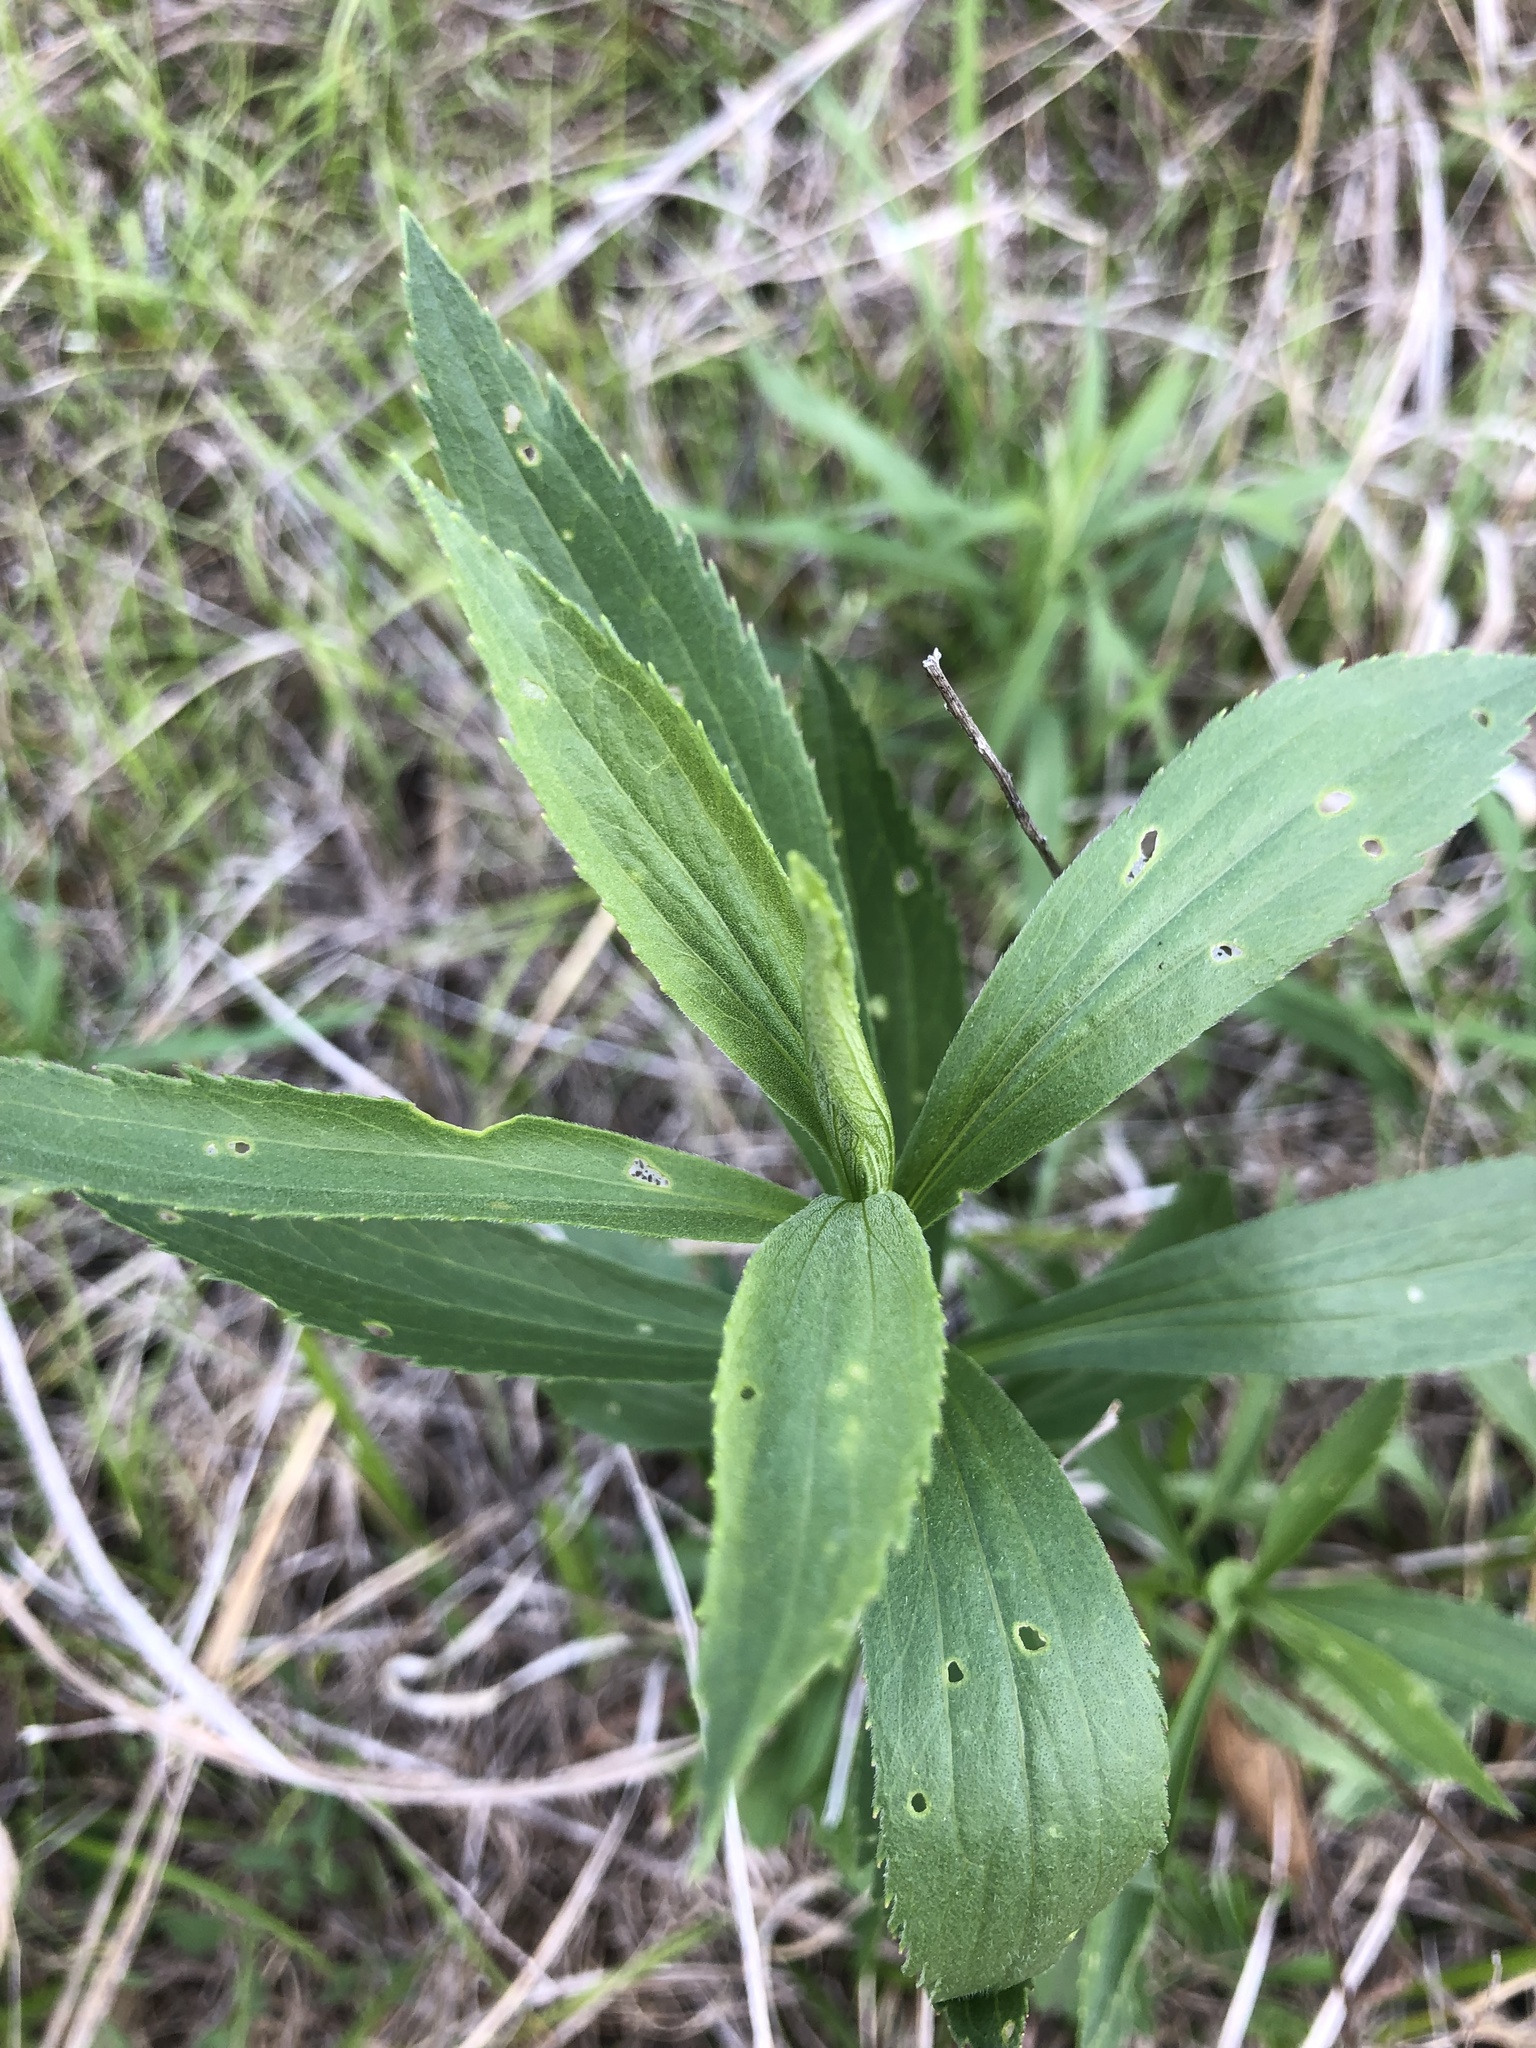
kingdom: Plantae
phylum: Tracheophyta
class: Magnoliopsida
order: Asterales
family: Asteraceae
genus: Eupatorium
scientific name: Eupatorium altissimum
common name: Tall thoroughwort
